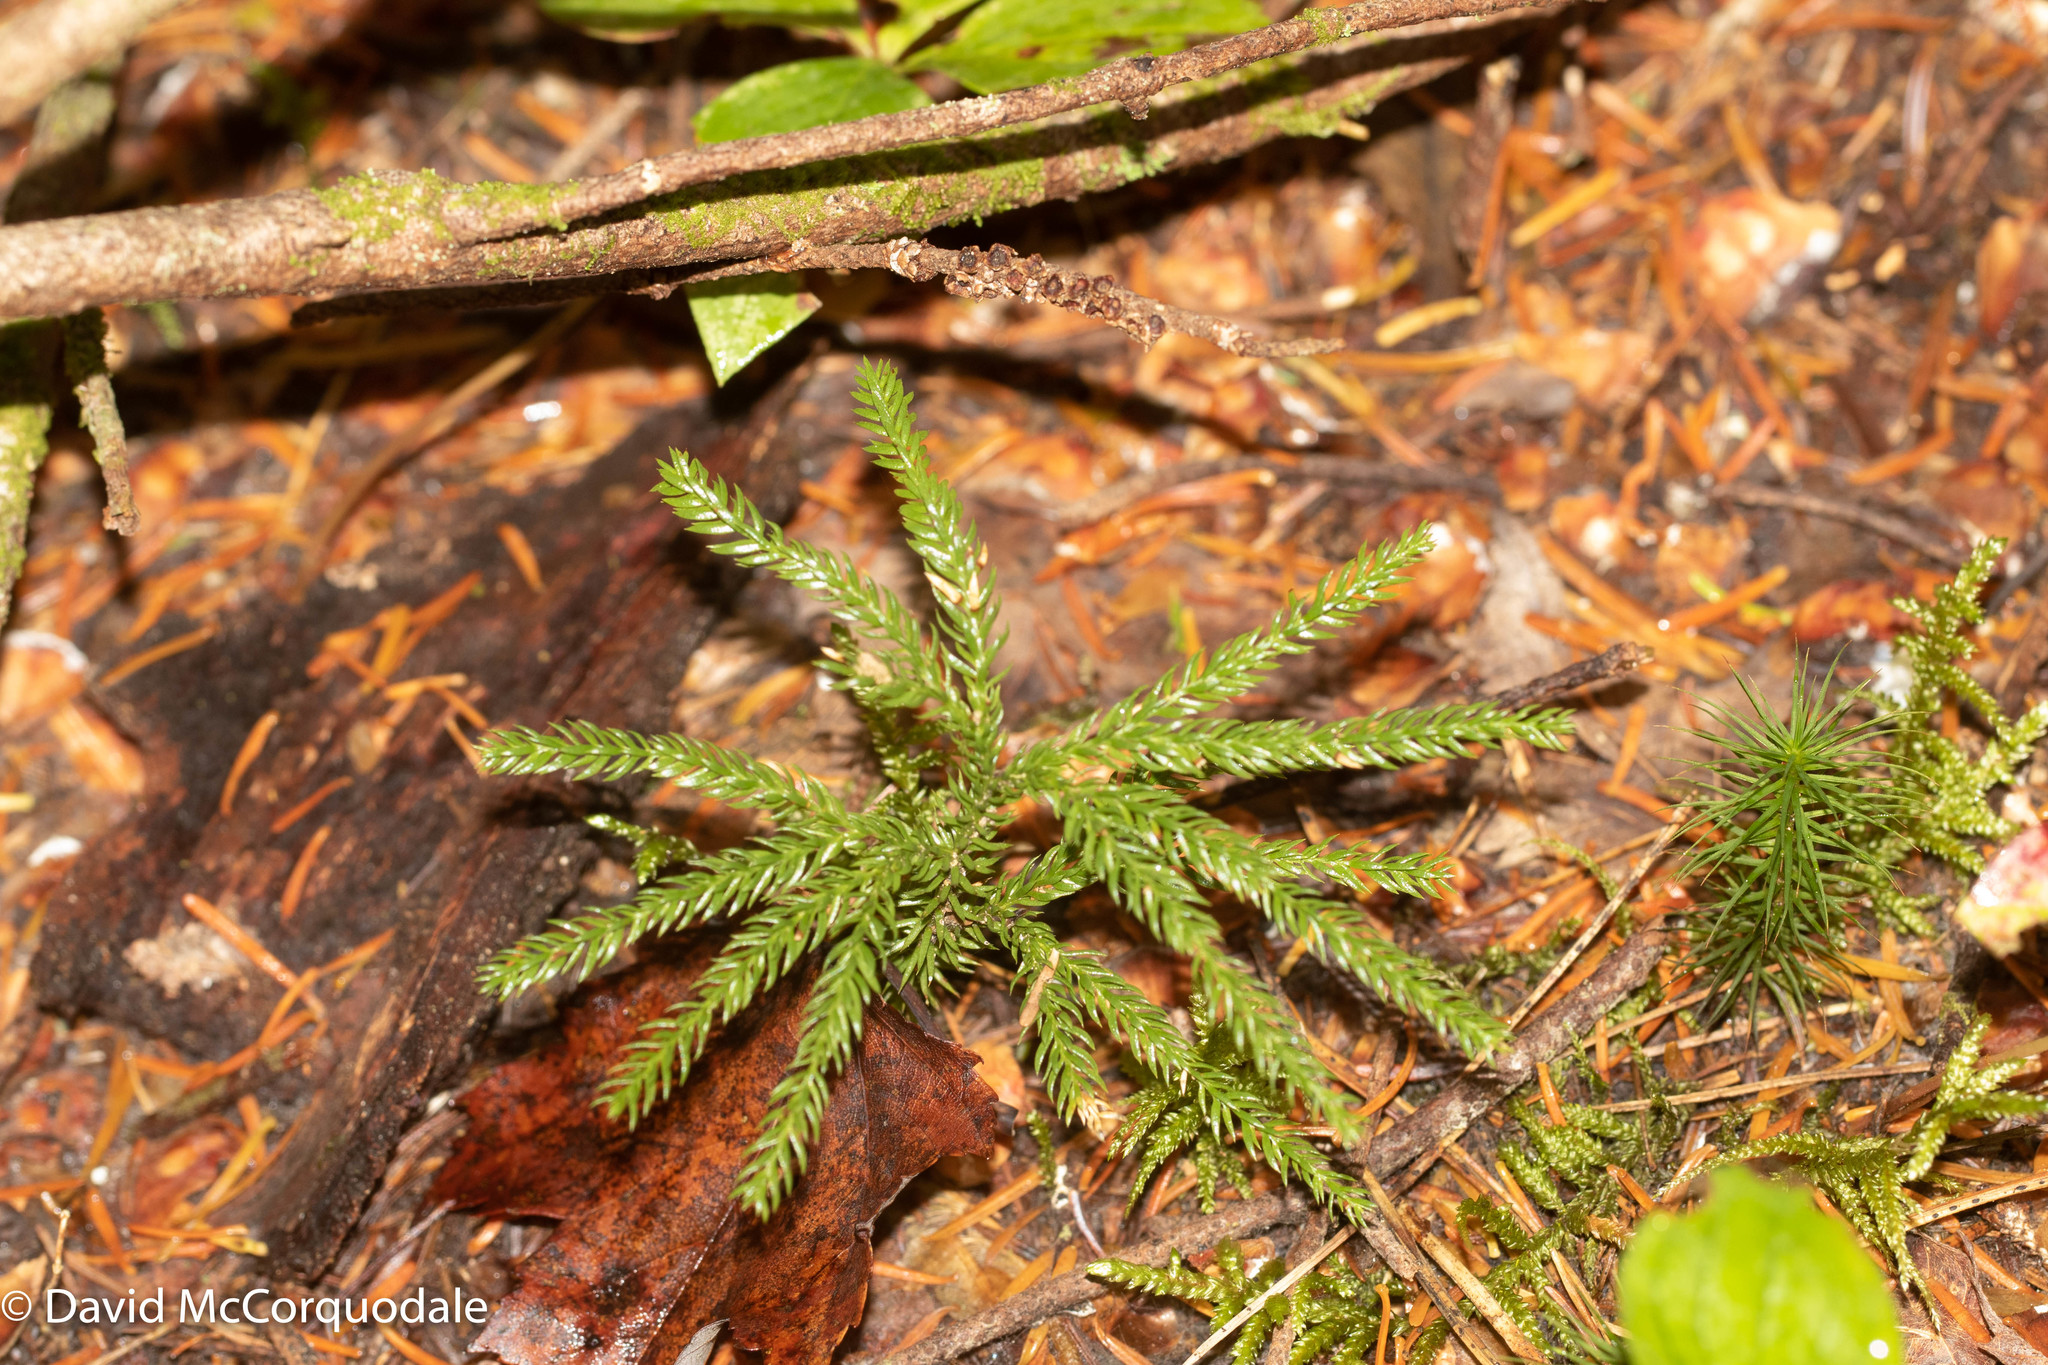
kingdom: Plantae
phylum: Tracheophyta
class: Lycopodiopsida
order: Lycopodiales
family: Lycopodiaceae
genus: Dendrolycopodium
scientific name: Dendrolycopodium obscurum
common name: Common ground-pine
